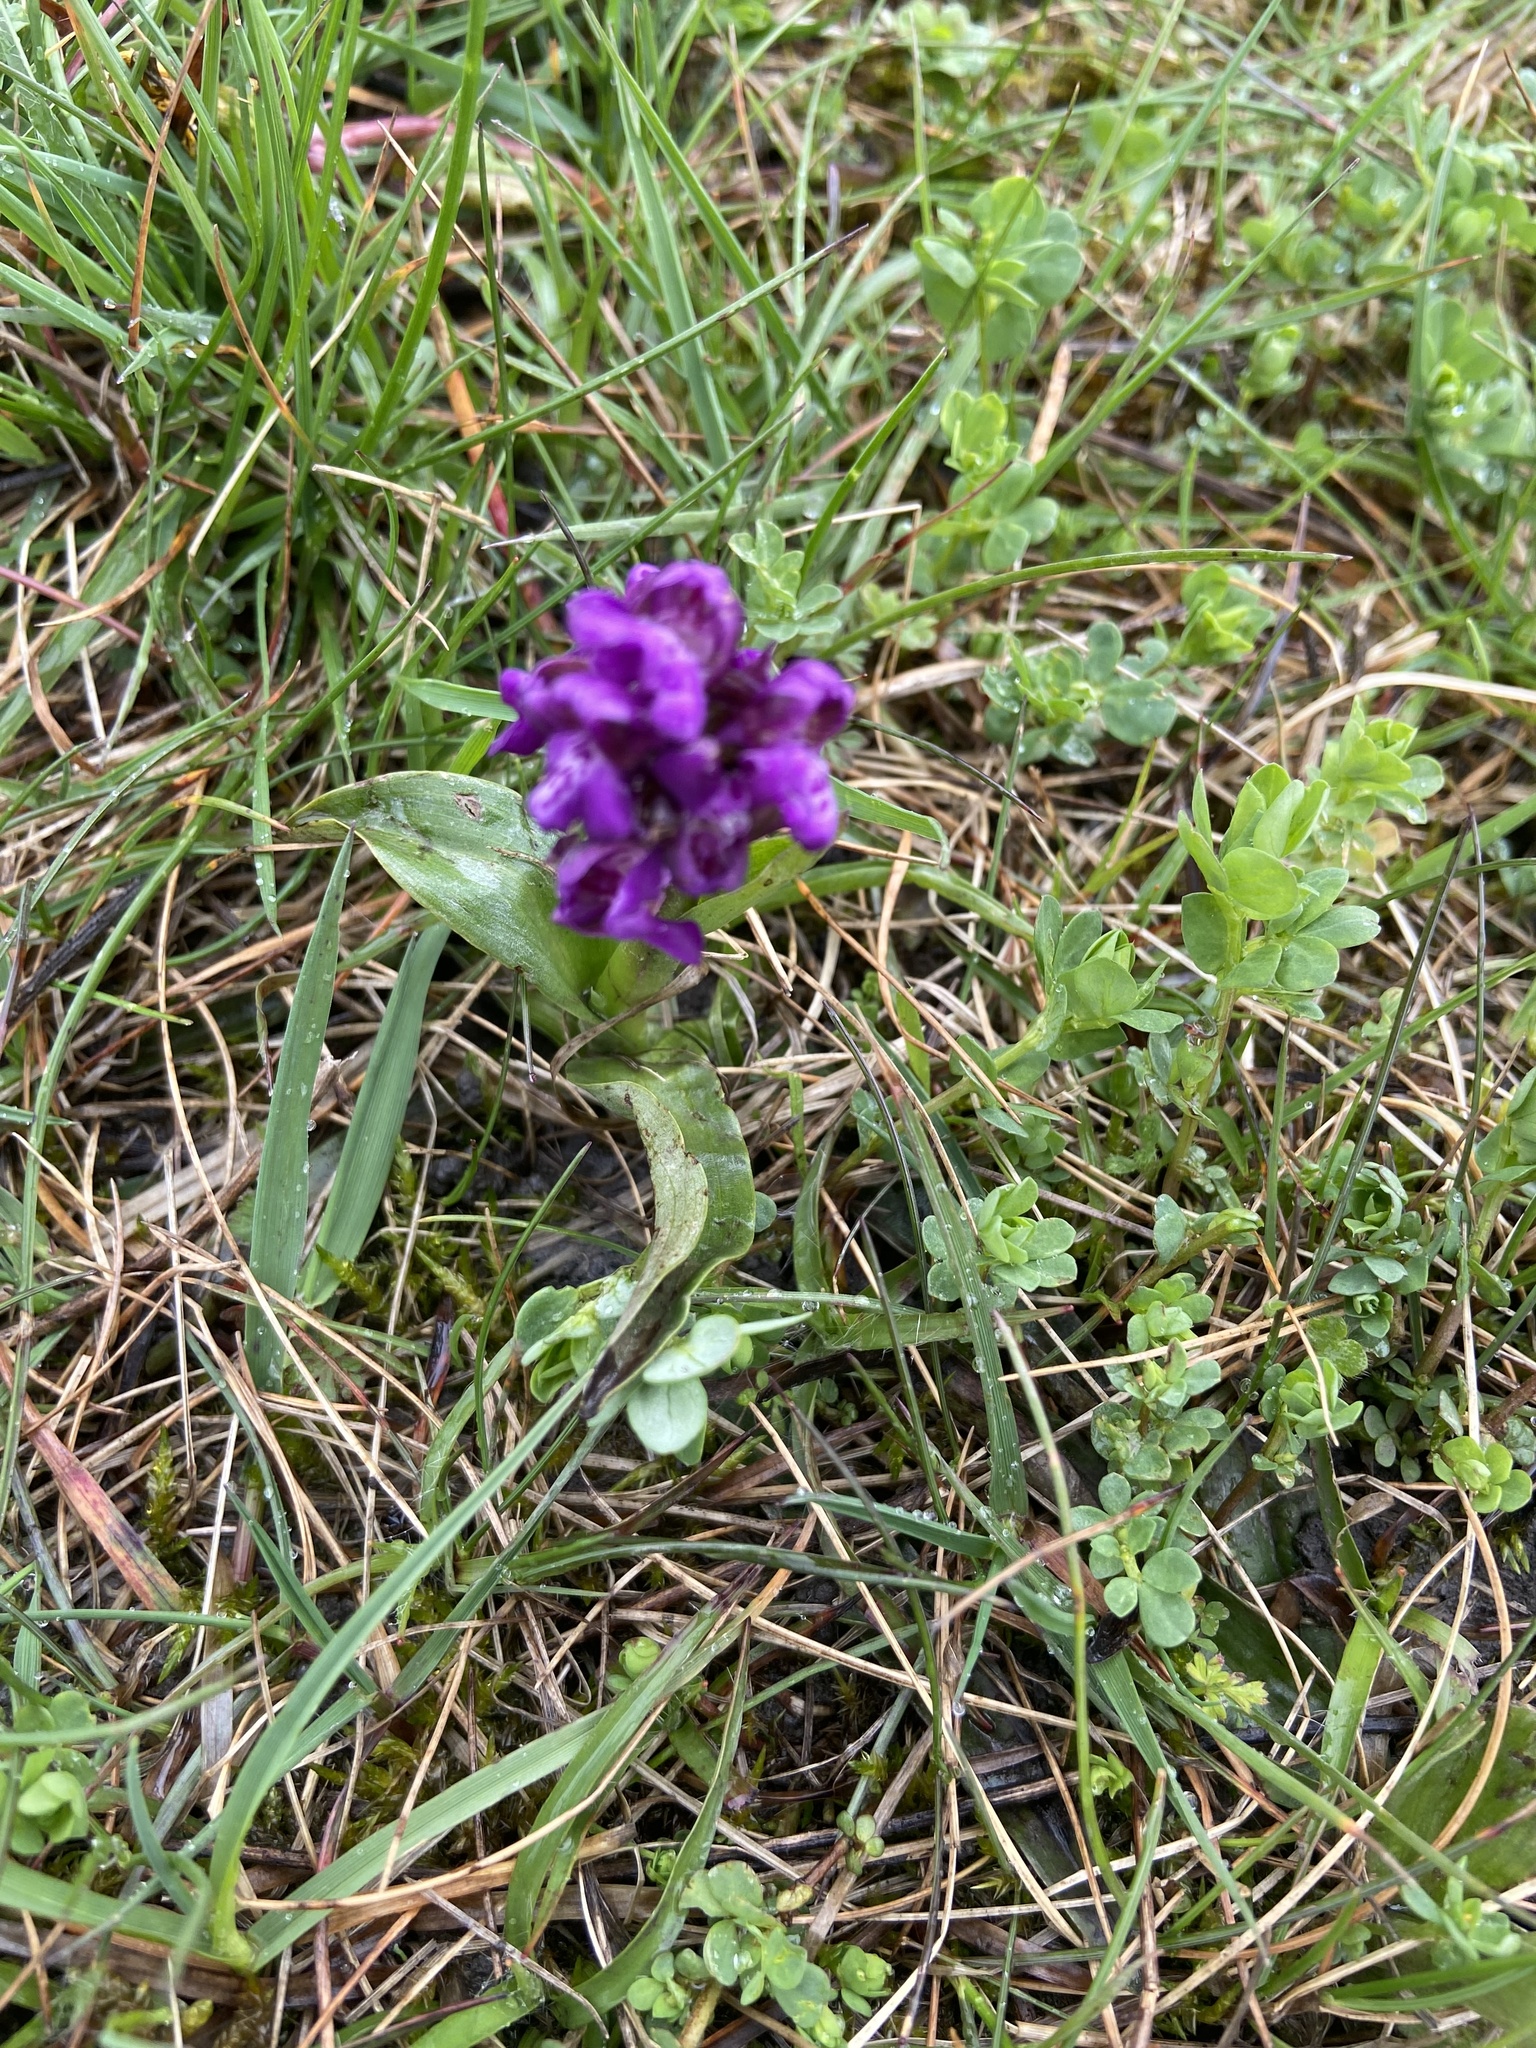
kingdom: Plantae
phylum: Tracheophyta
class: Liliopsida
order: Asparagales
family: Orchidaceae
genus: Anacamptis
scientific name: Anacamptis morio
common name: Green-winged orchid
